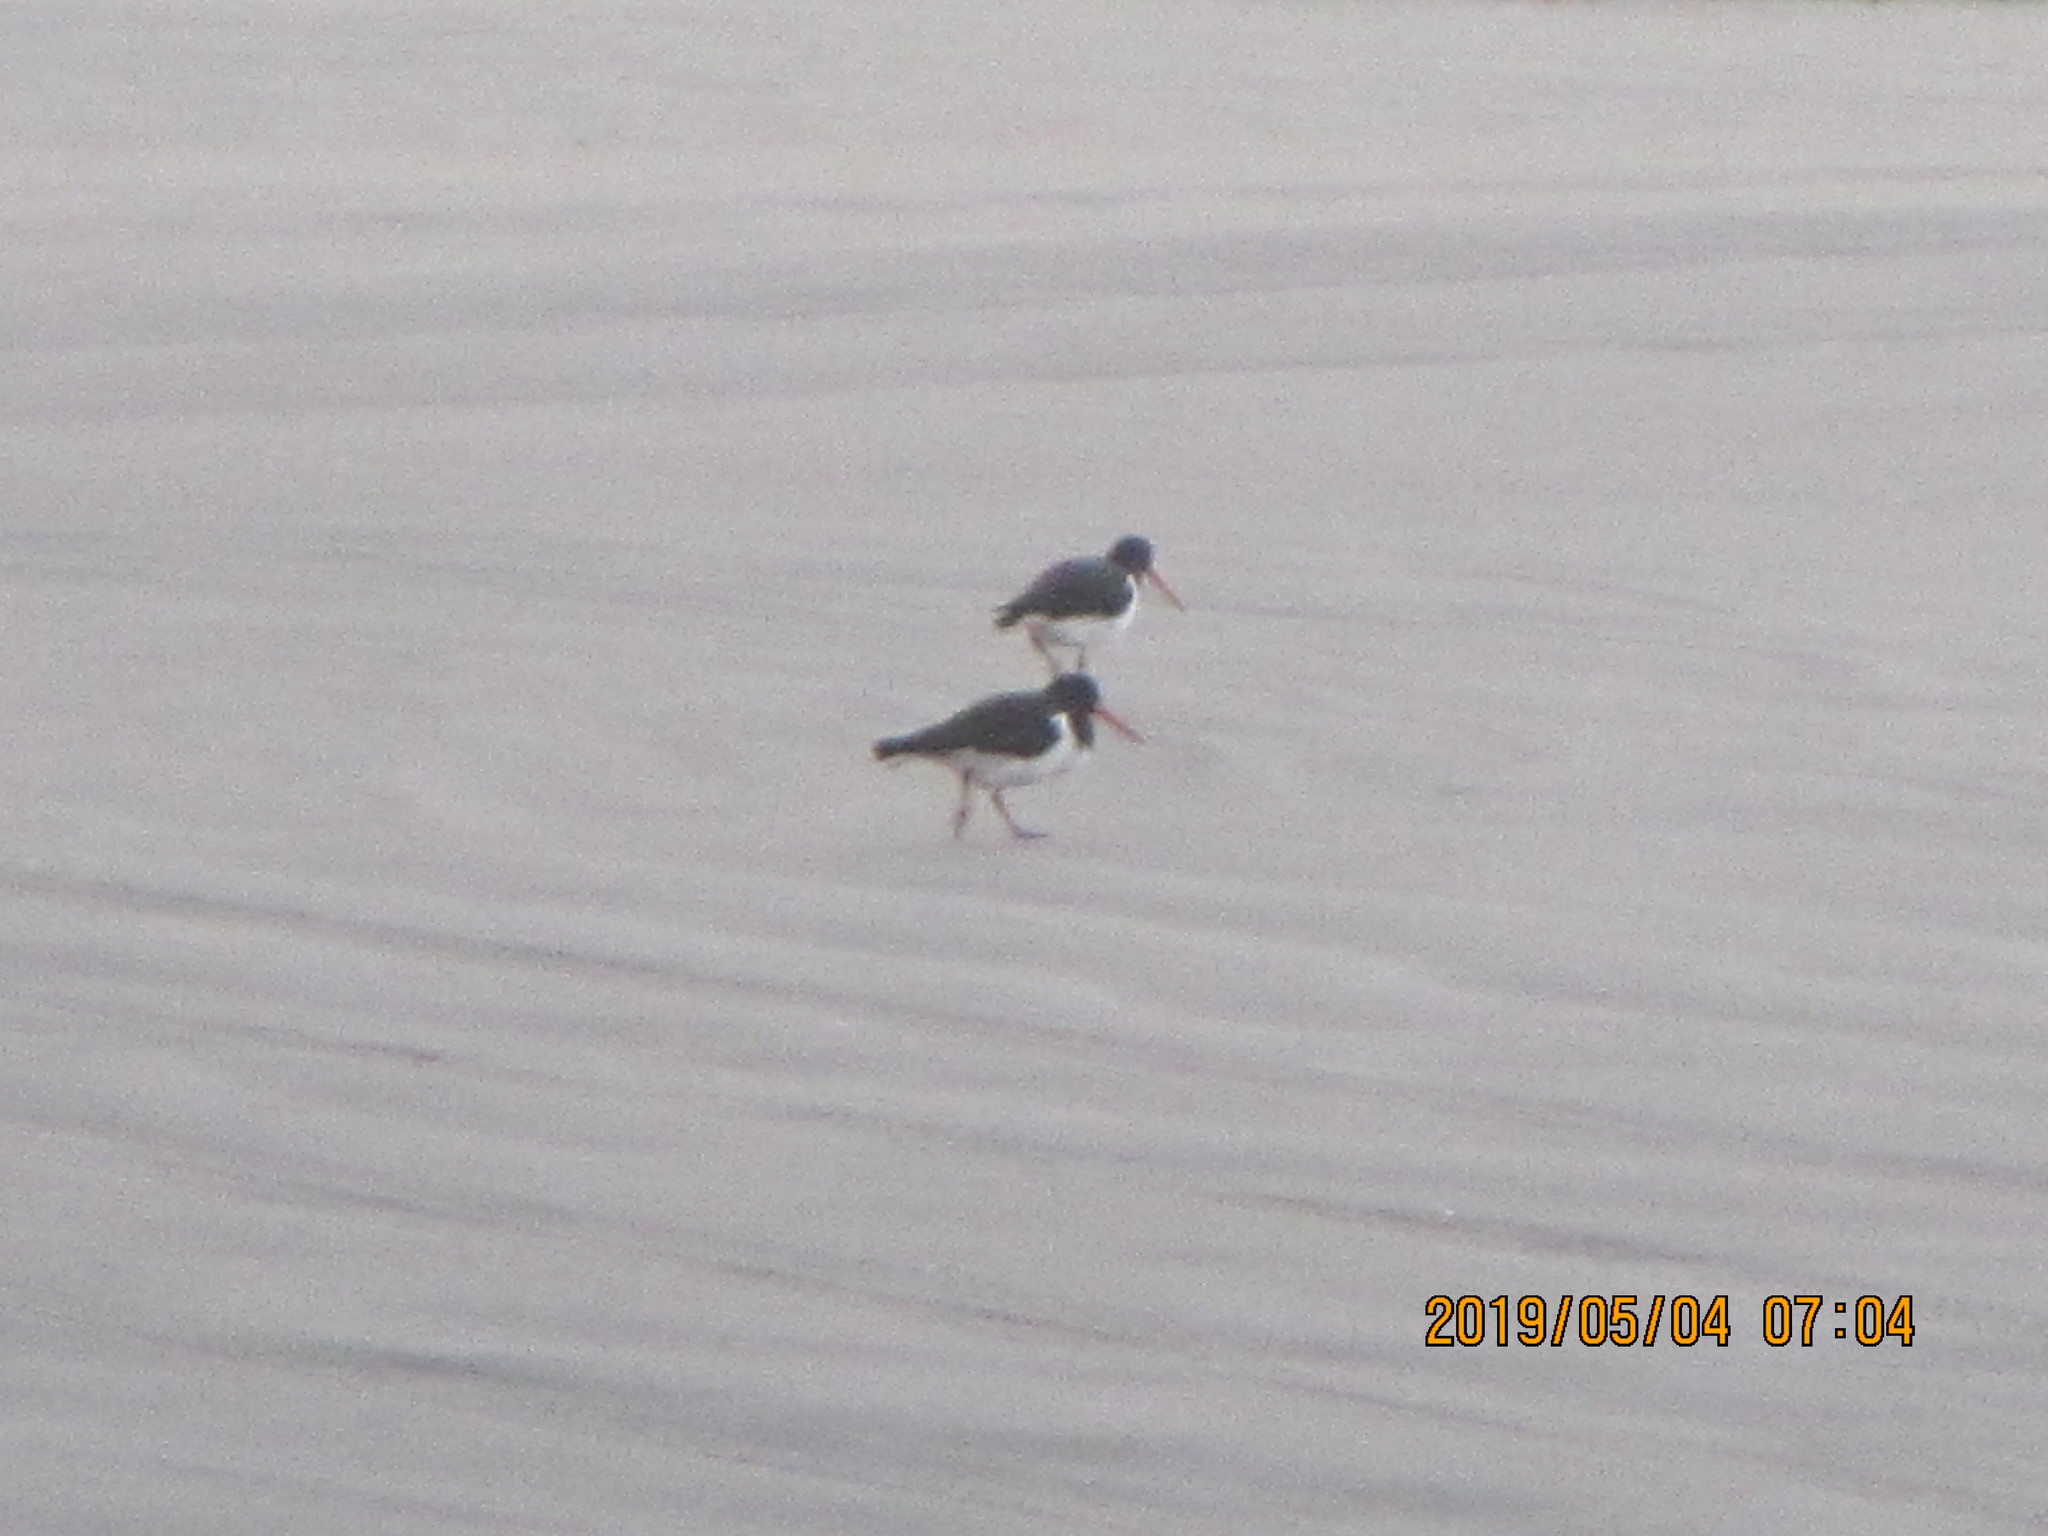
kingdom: Animalia
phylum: Chordata
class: Aves
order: Charadriiformes
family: Haematopodidae
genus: Haematopus
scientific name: Haematopus finschi
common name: South island oystercatcher
